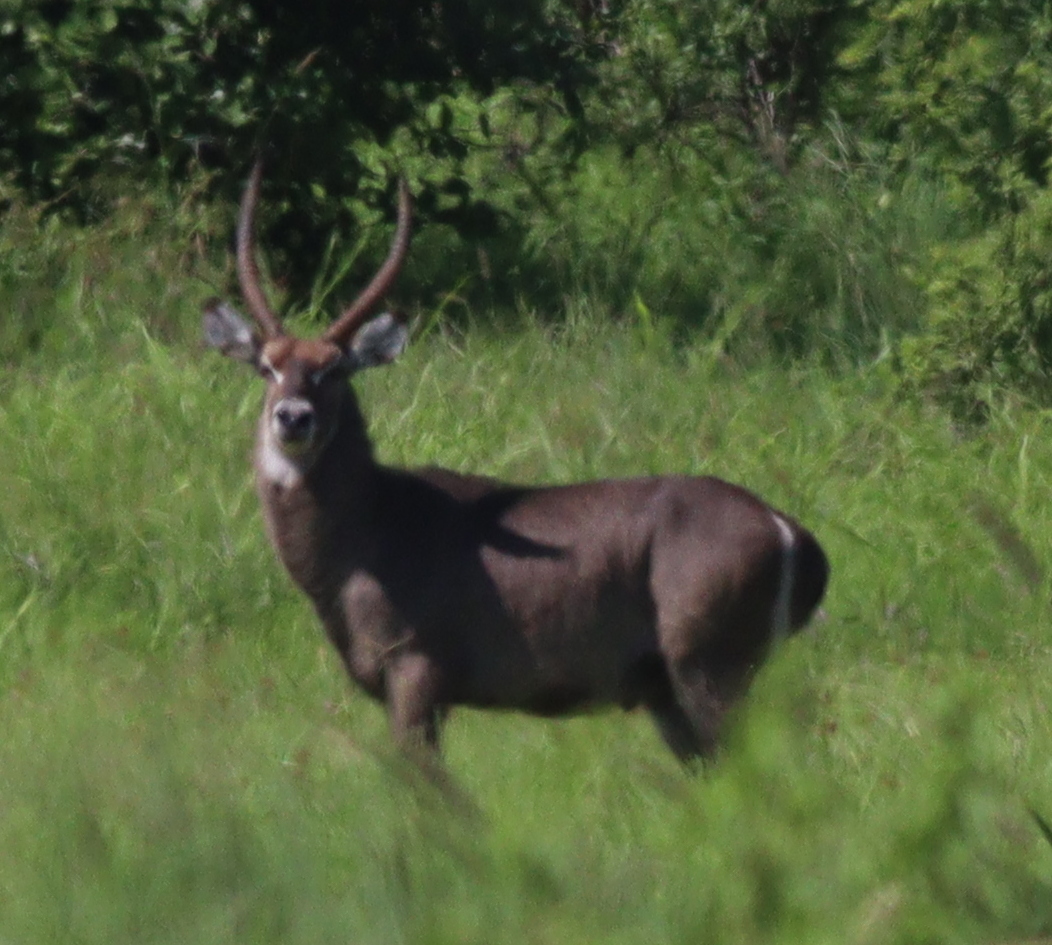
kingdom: Animalia
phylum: Chordata
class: Mammalia
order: Artiodactyla
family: Bovidae
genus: Kobus
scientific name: Kobus ellipsiprymnus
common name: Waterbuck
